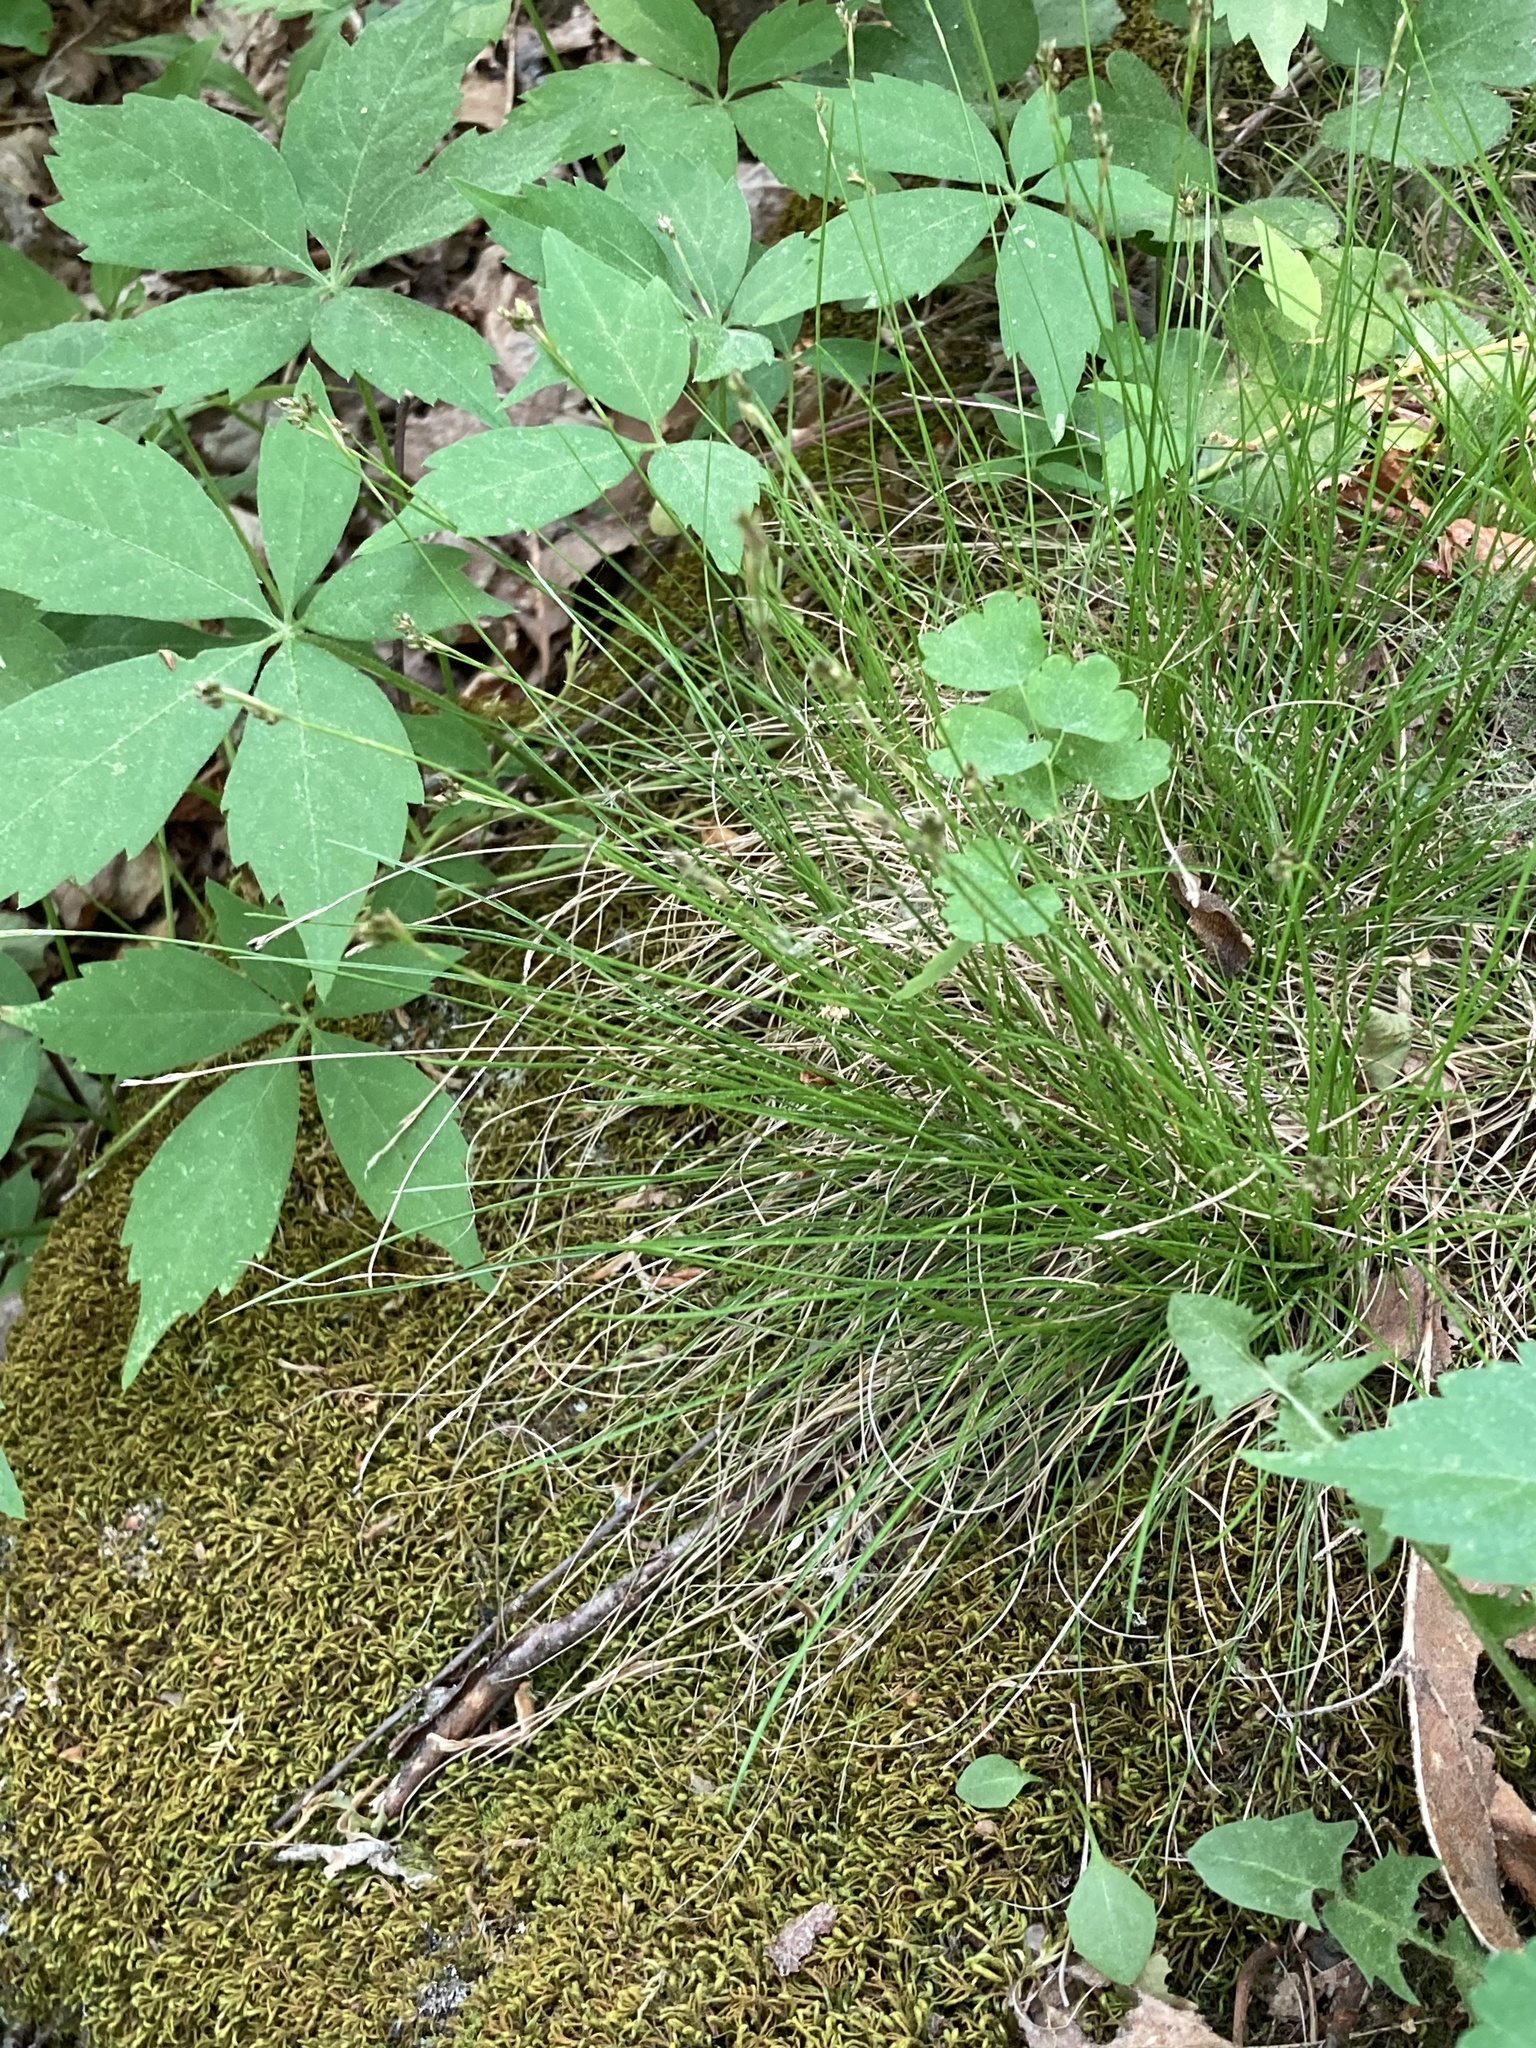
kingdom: Plantae
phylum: Tracheophyta
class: Liliopsida
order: Poales
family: Cyperaceae
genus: Carex
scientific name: Carex eburnea
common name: Bristle-leaved sedge
